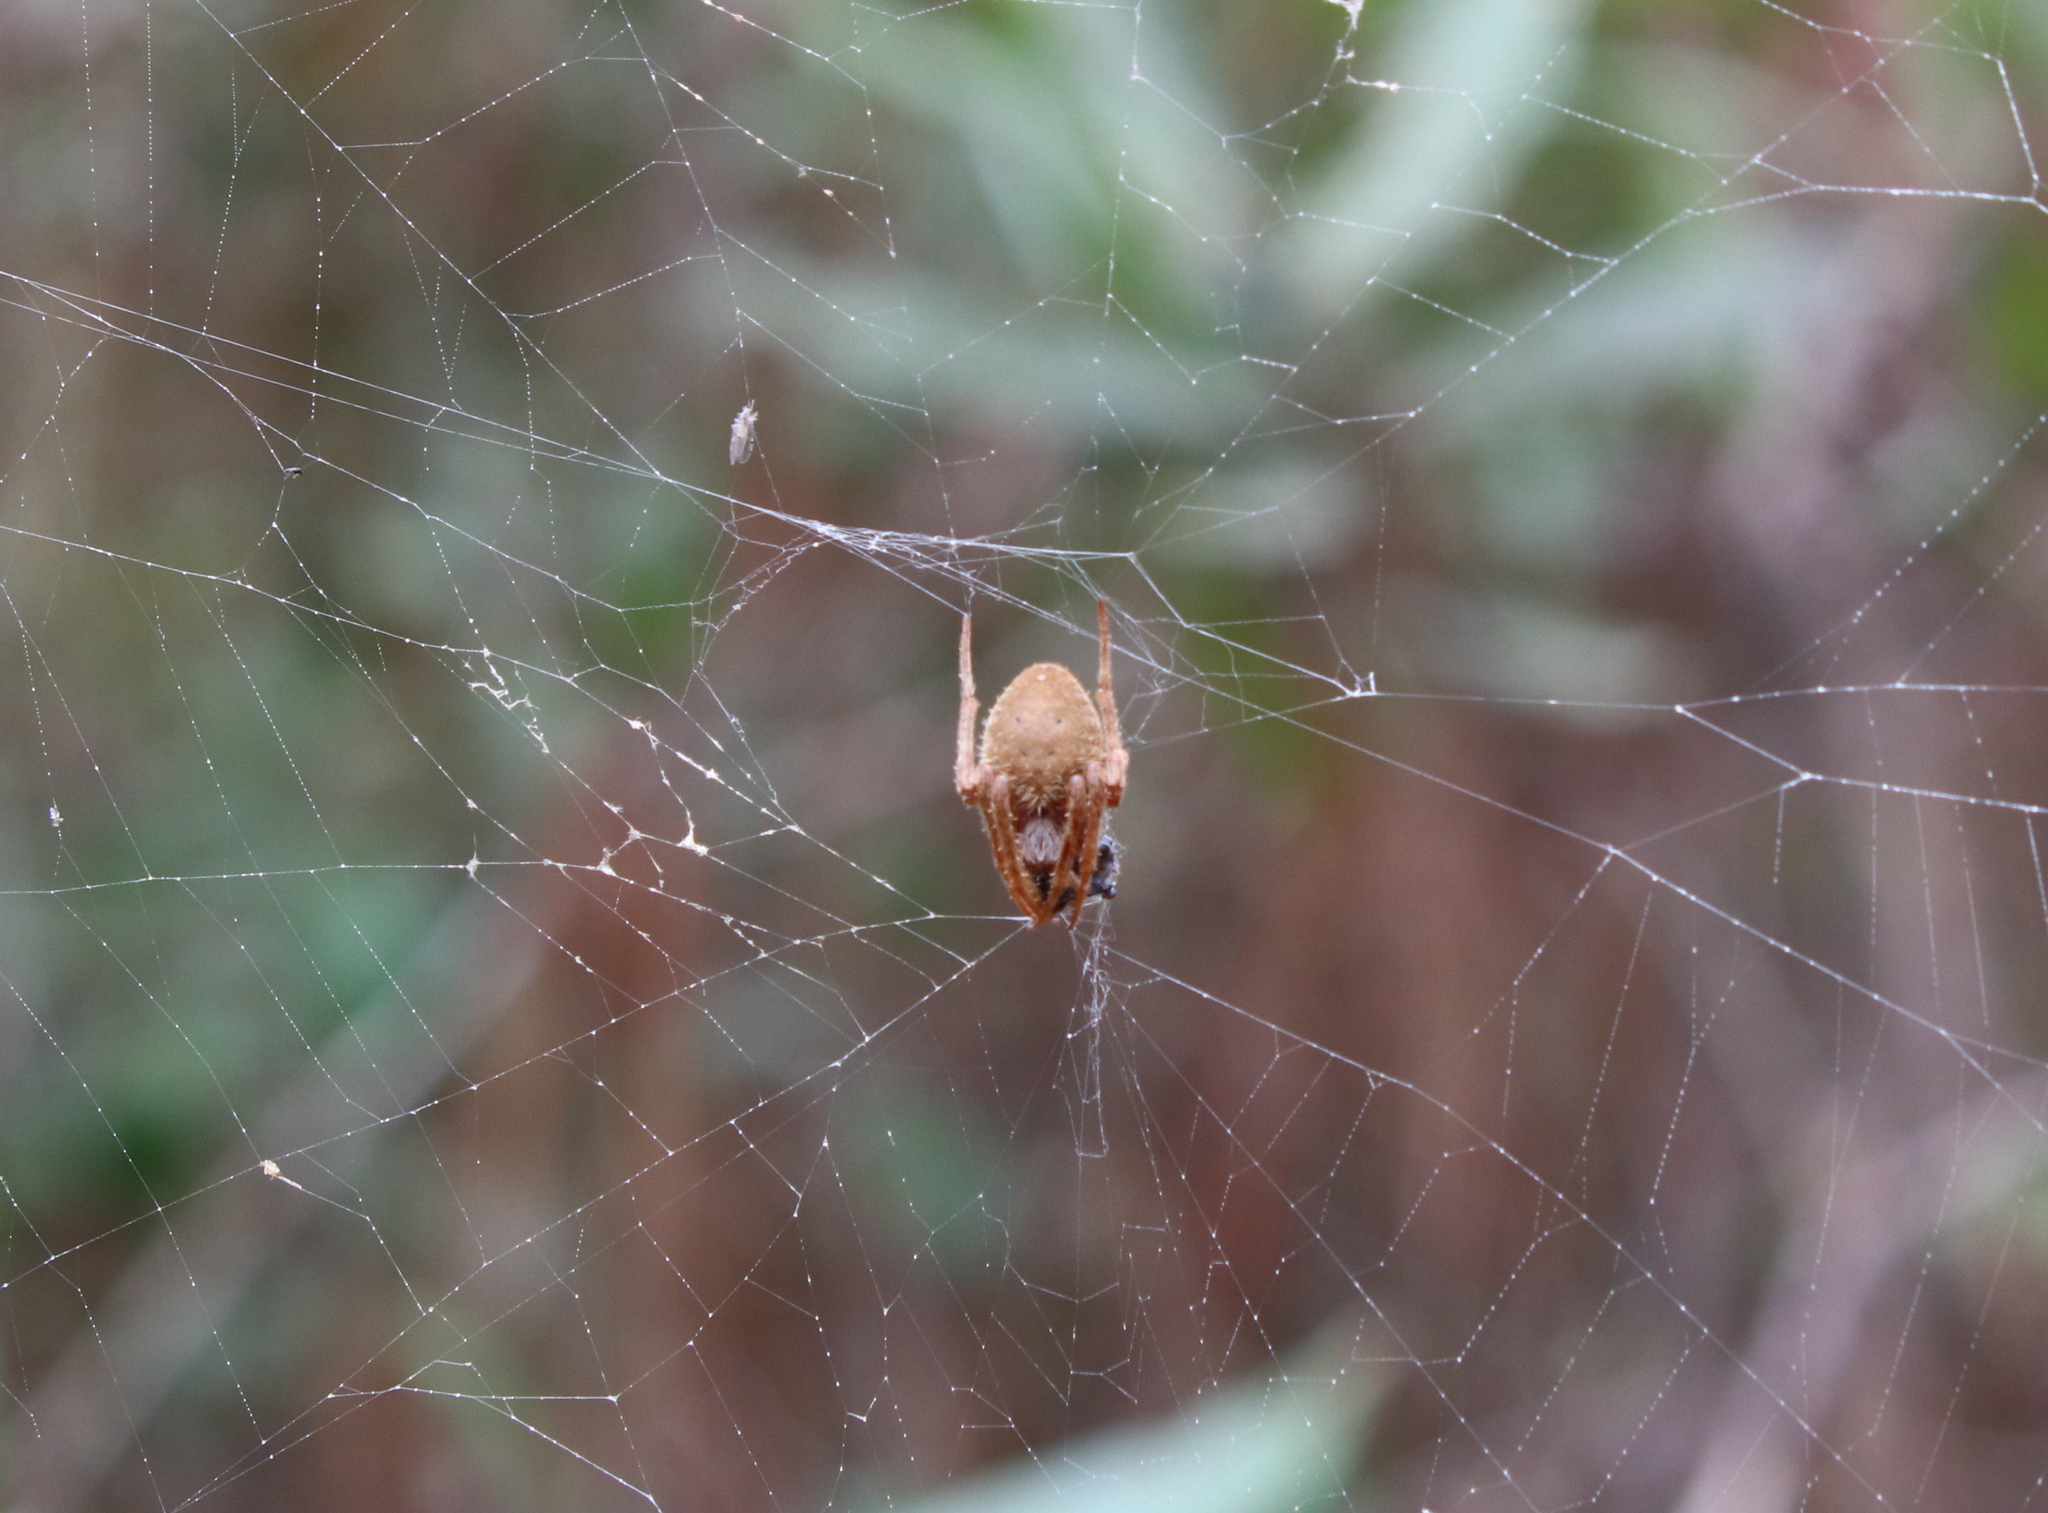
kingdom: Animalia
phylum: Arthropoda
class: Arachnida
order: Araneae
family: Araneidae
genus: Eriophora
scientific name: Eriophora ravilla
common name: Orb weavers
